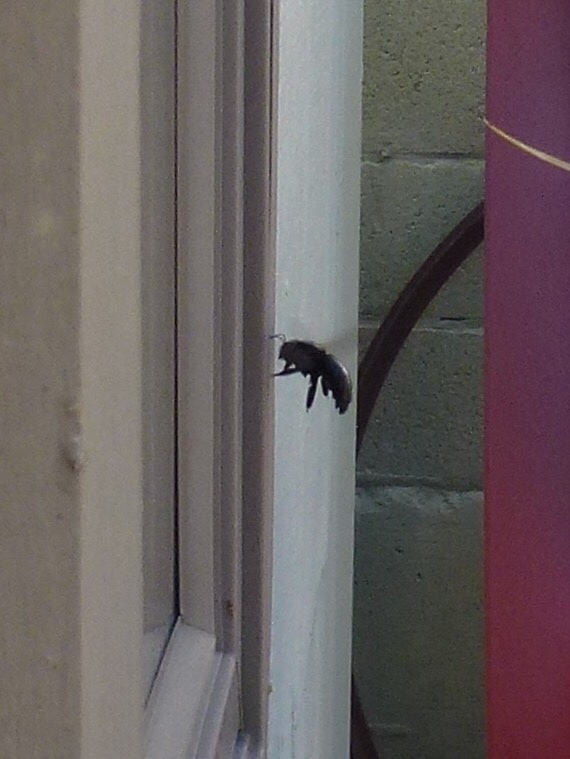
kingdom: Animalia
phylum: Arthropoda
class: Insecta
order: Hymenoptera
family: Apidae
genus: Xylocopa
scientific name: Xylocopa sonorina
